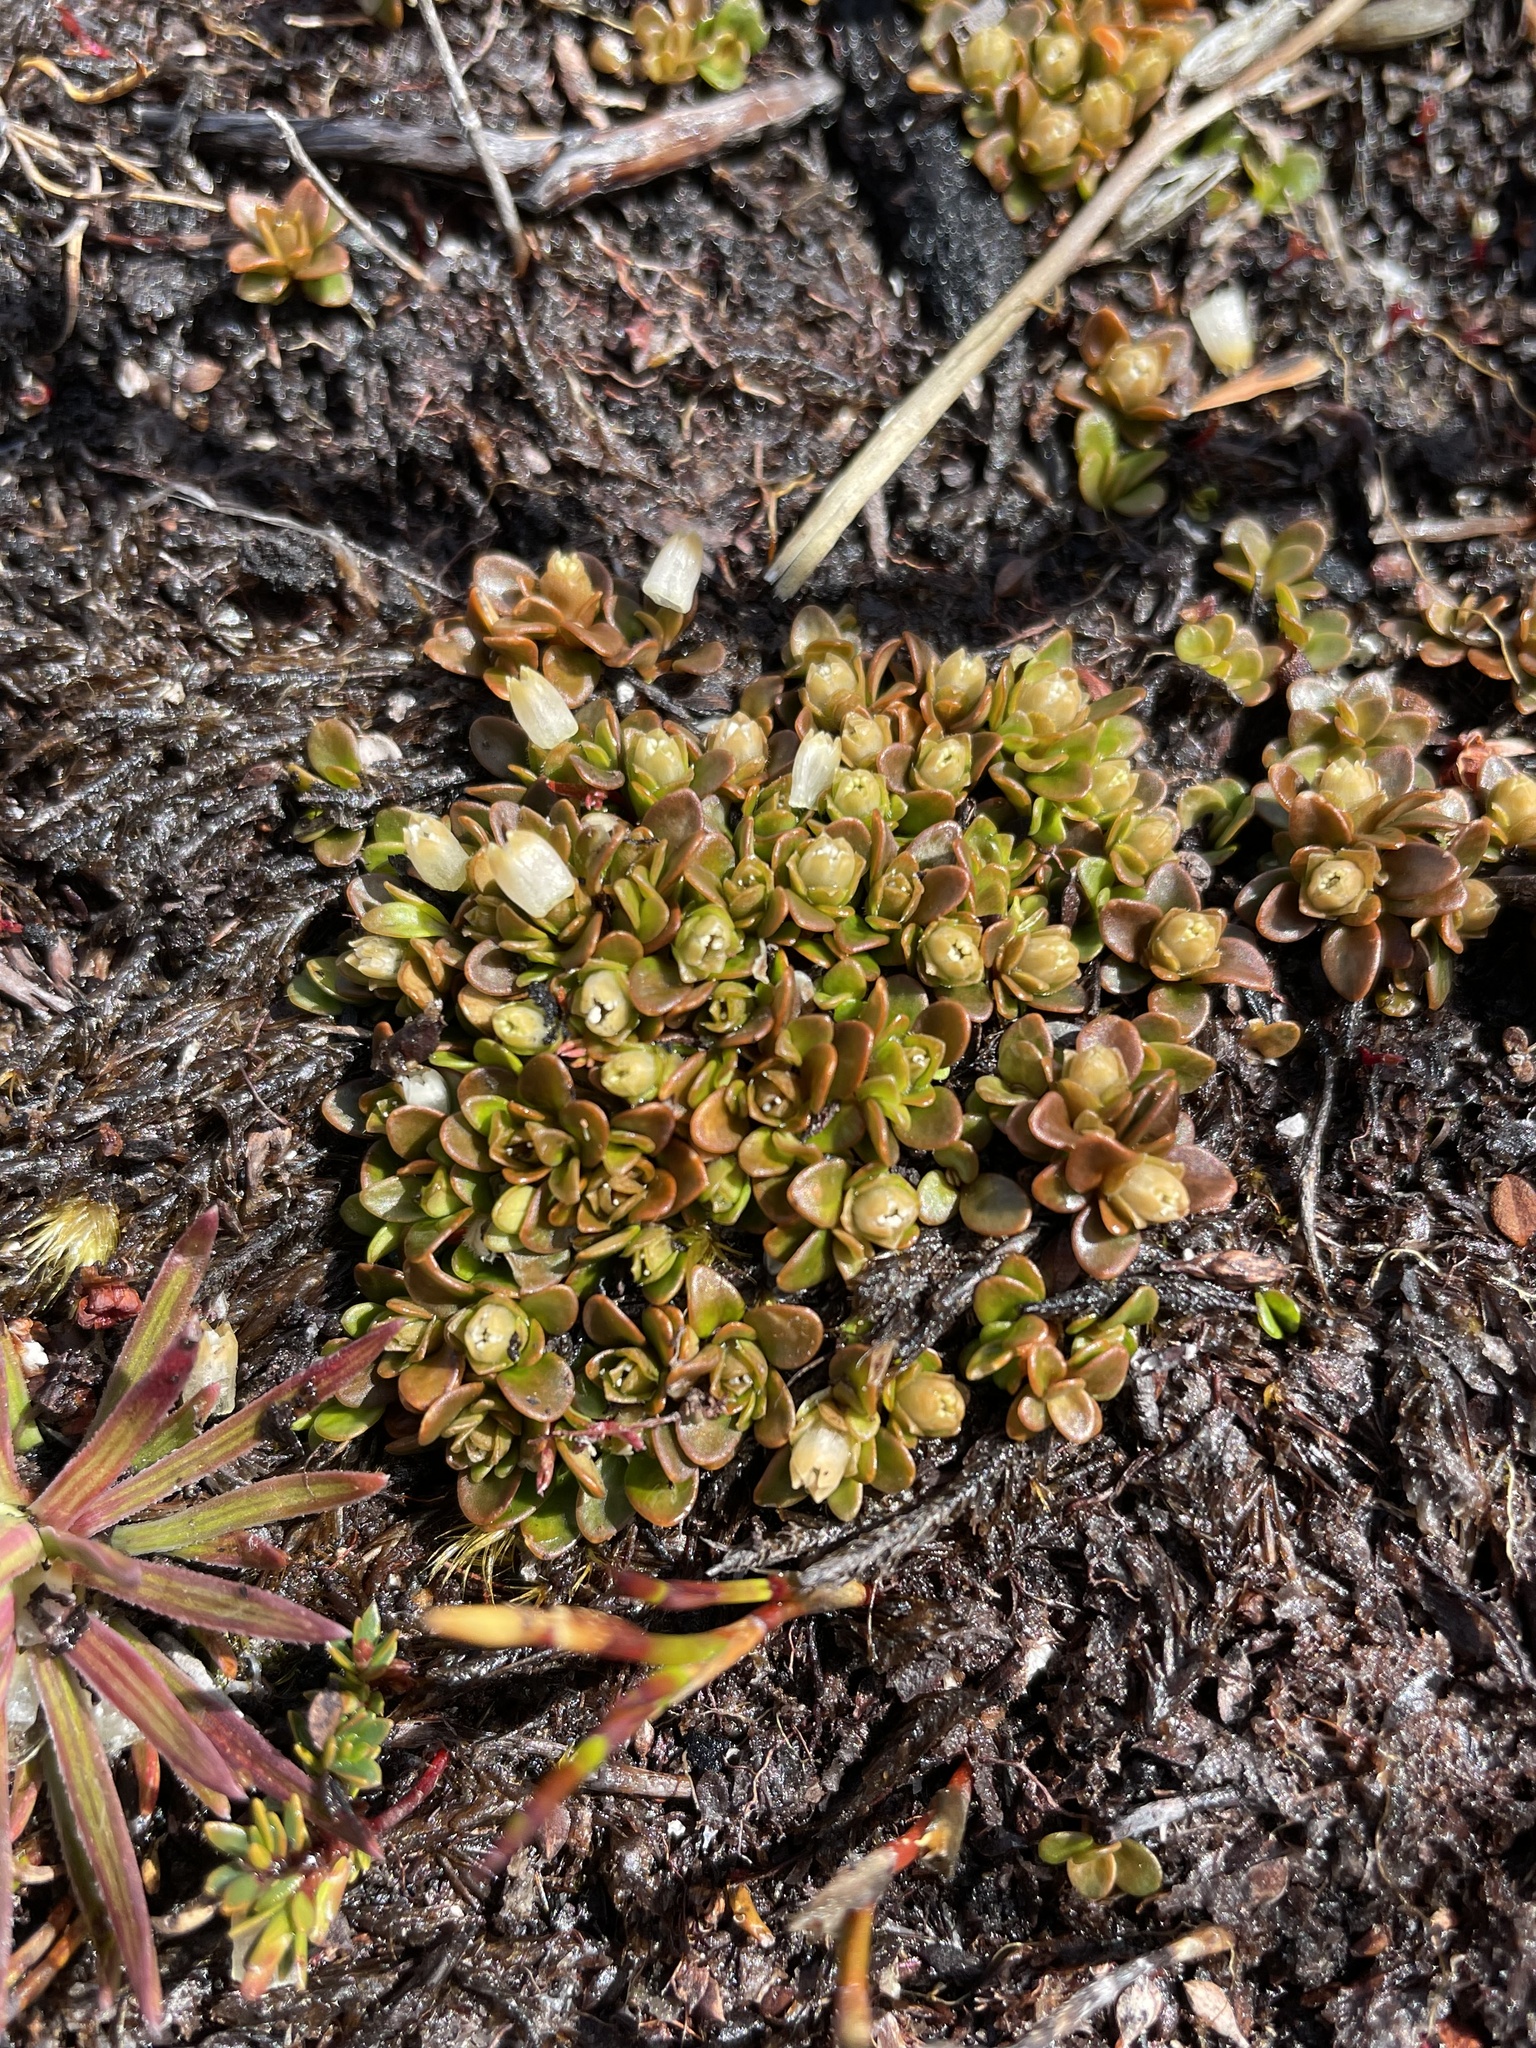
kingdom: Plantae
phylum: Tracheophyta
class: Magnoliopsida
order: Gentianales
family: Loganiaceae
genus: Schizacme
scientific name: Schizacme montana
